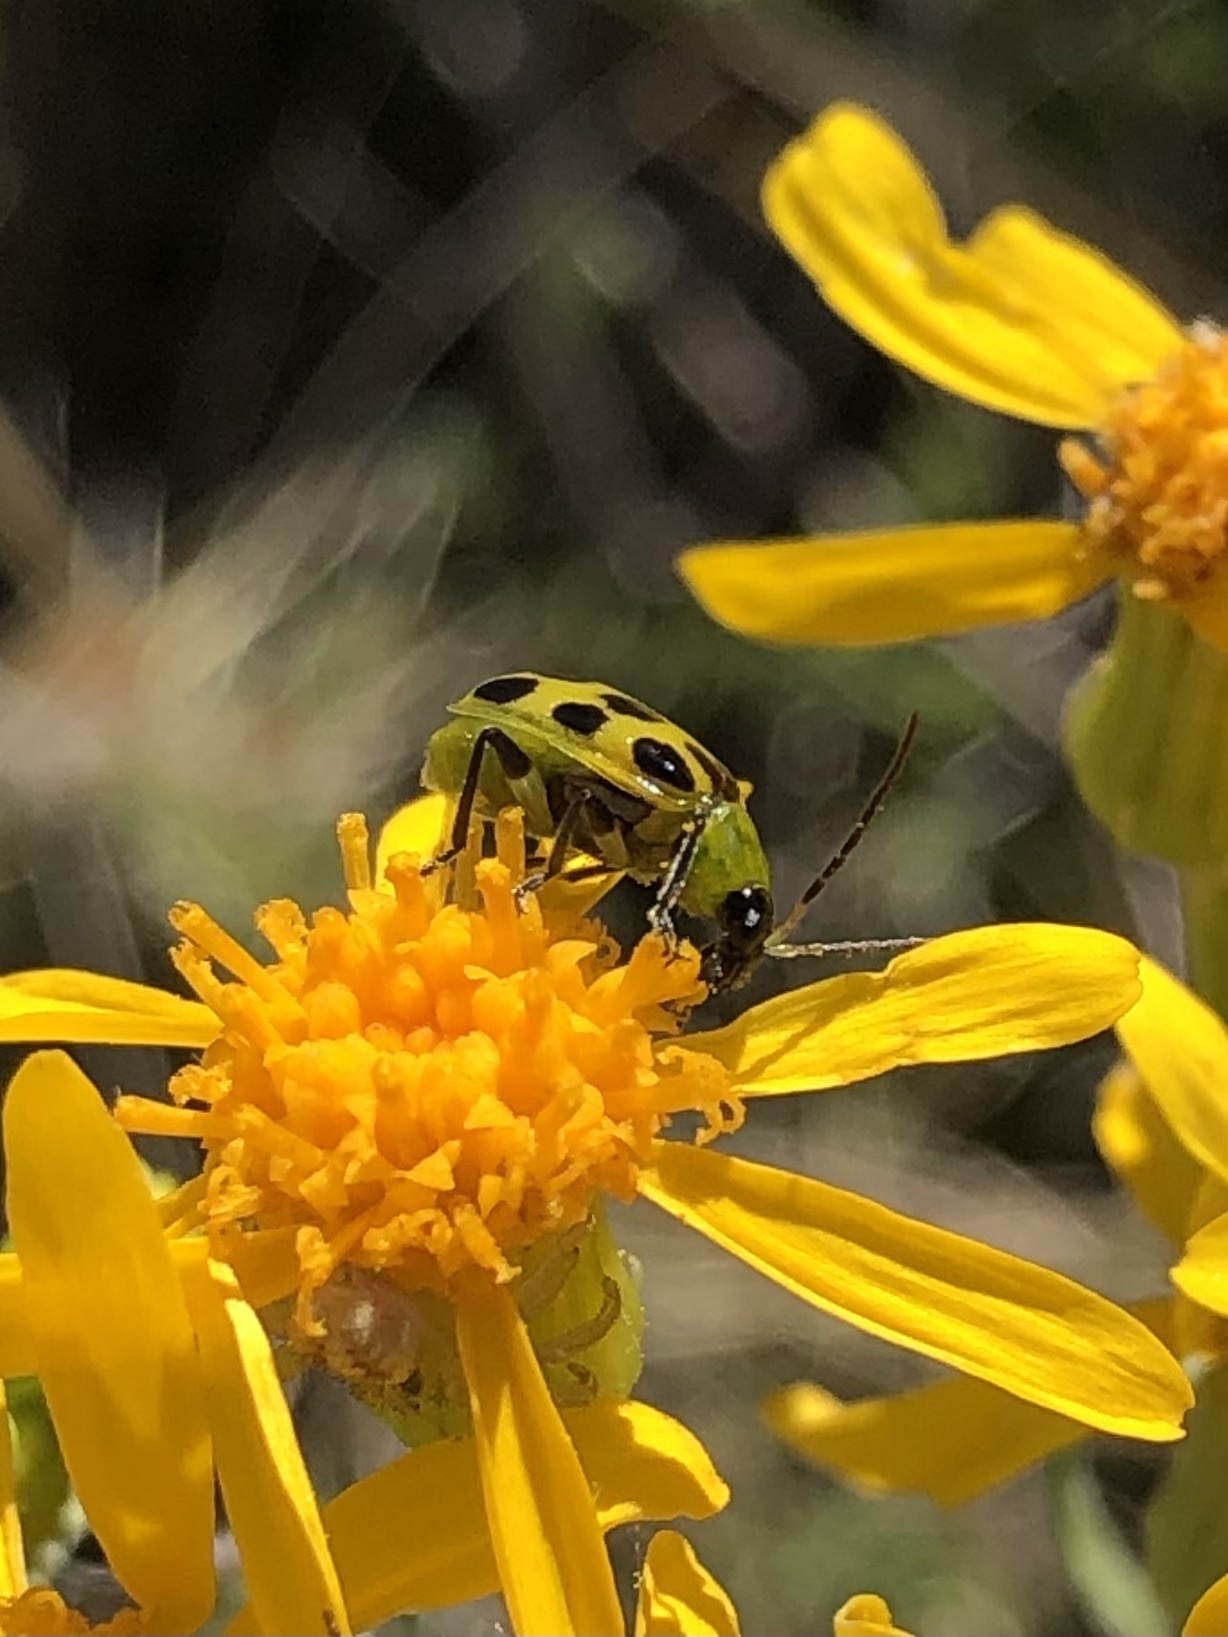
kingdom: Animalia
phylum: Arthropoda
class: Insecta
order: Coleoptera
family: Chrysomelidae
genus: Diabrotica
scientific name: Diabrotica undecimpunctata
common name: Spotted cucumber beetle
